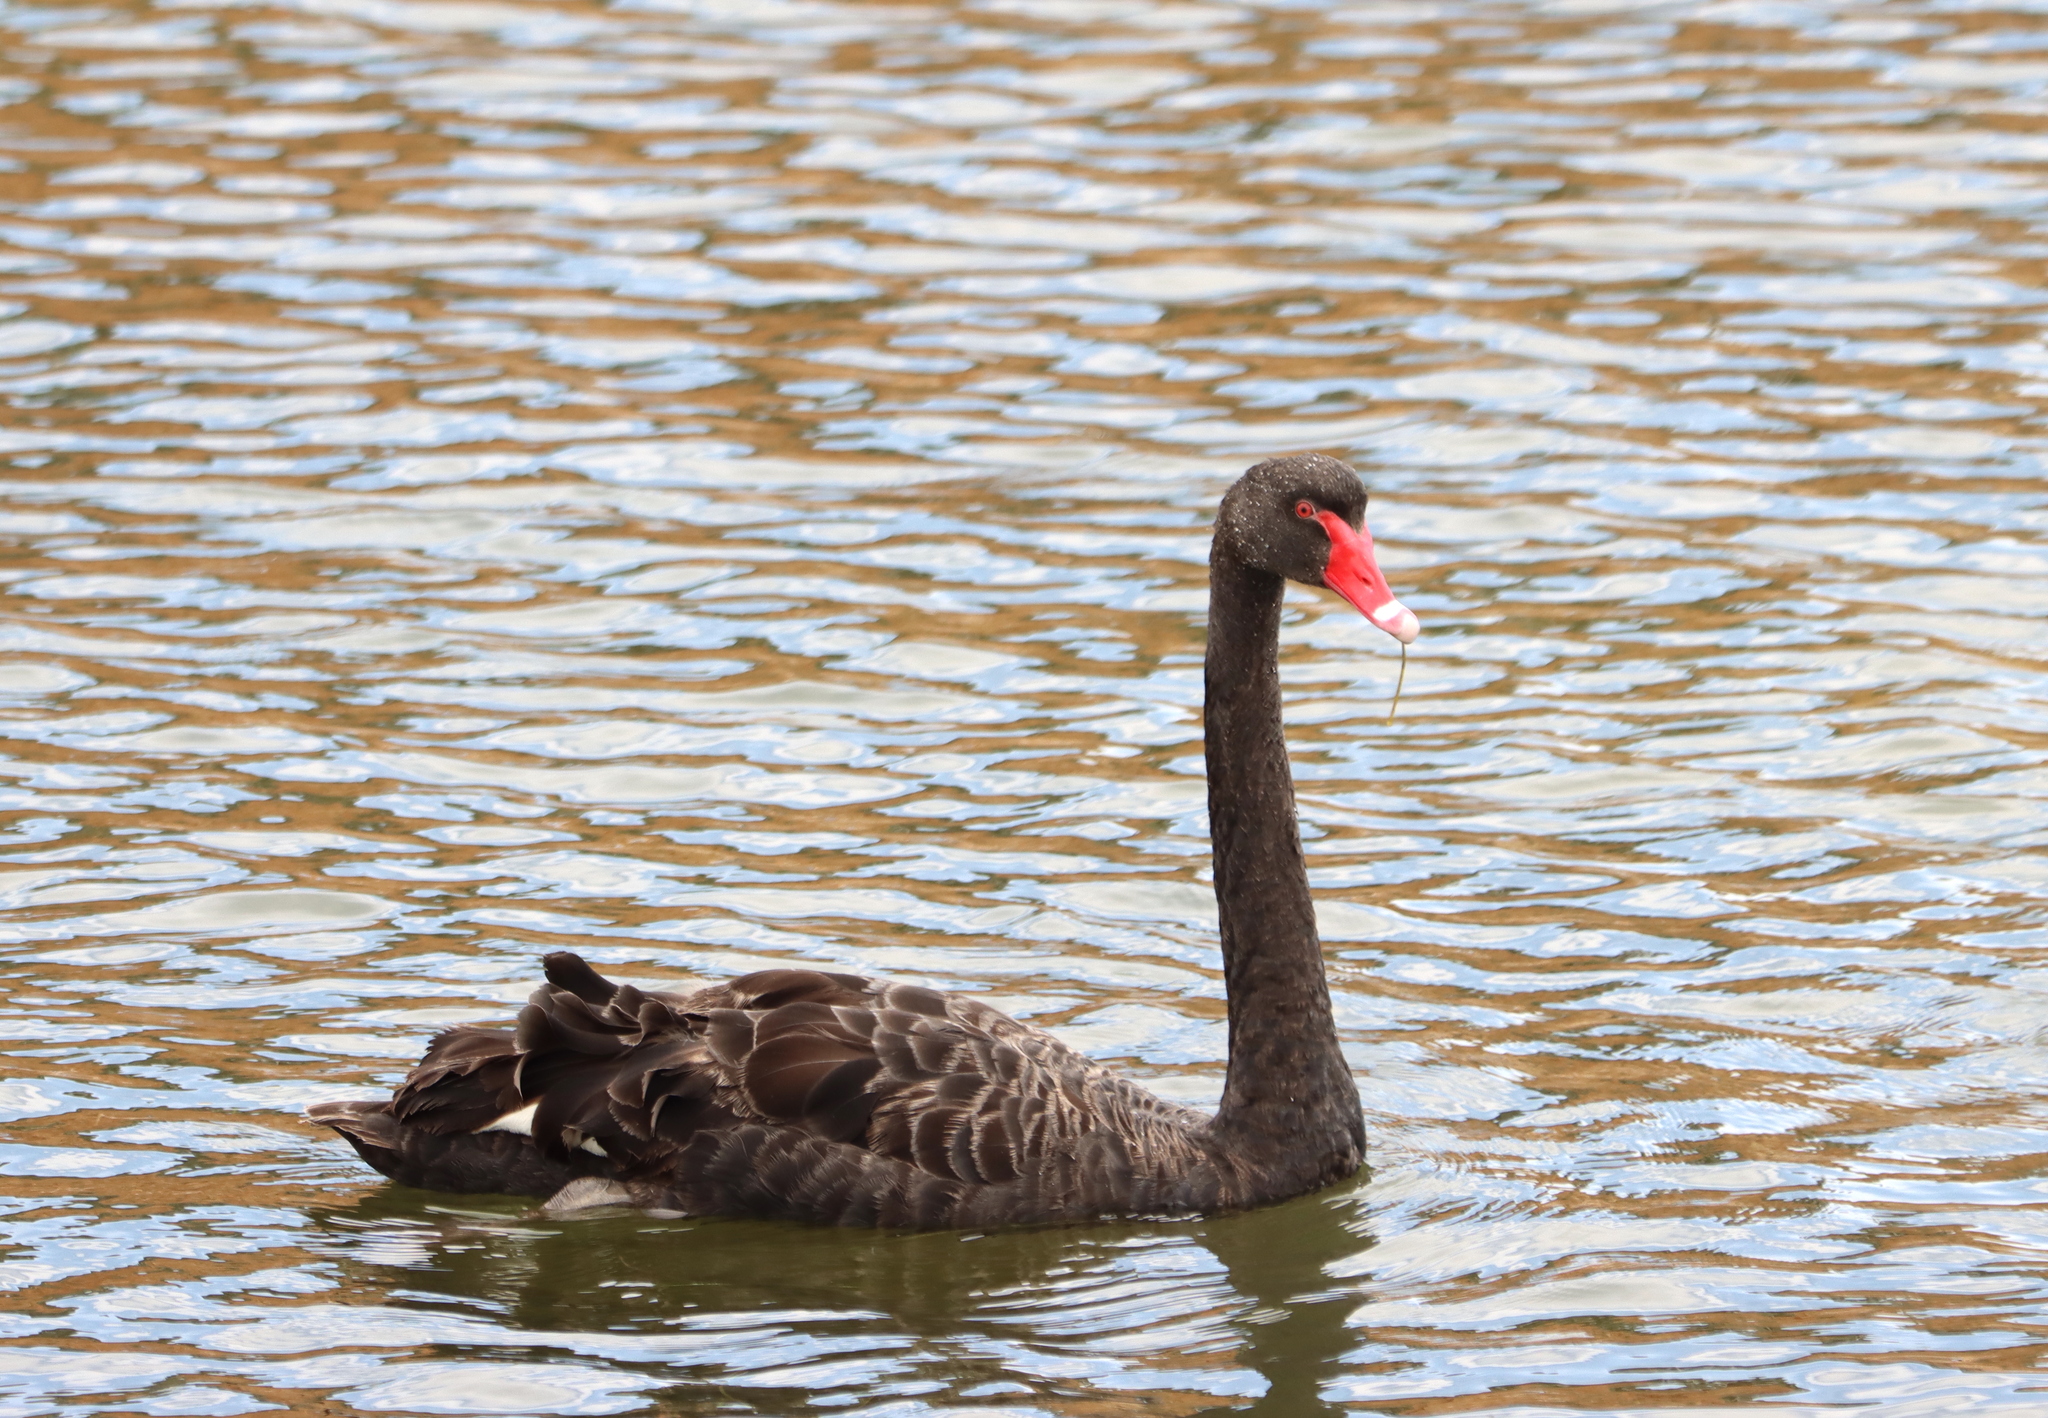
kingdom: Animalia
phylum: Chordata
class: Aves
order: Anseriformes
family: Anatidae
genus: Cygnus
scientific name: Cygnus atratus
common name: Black swan
